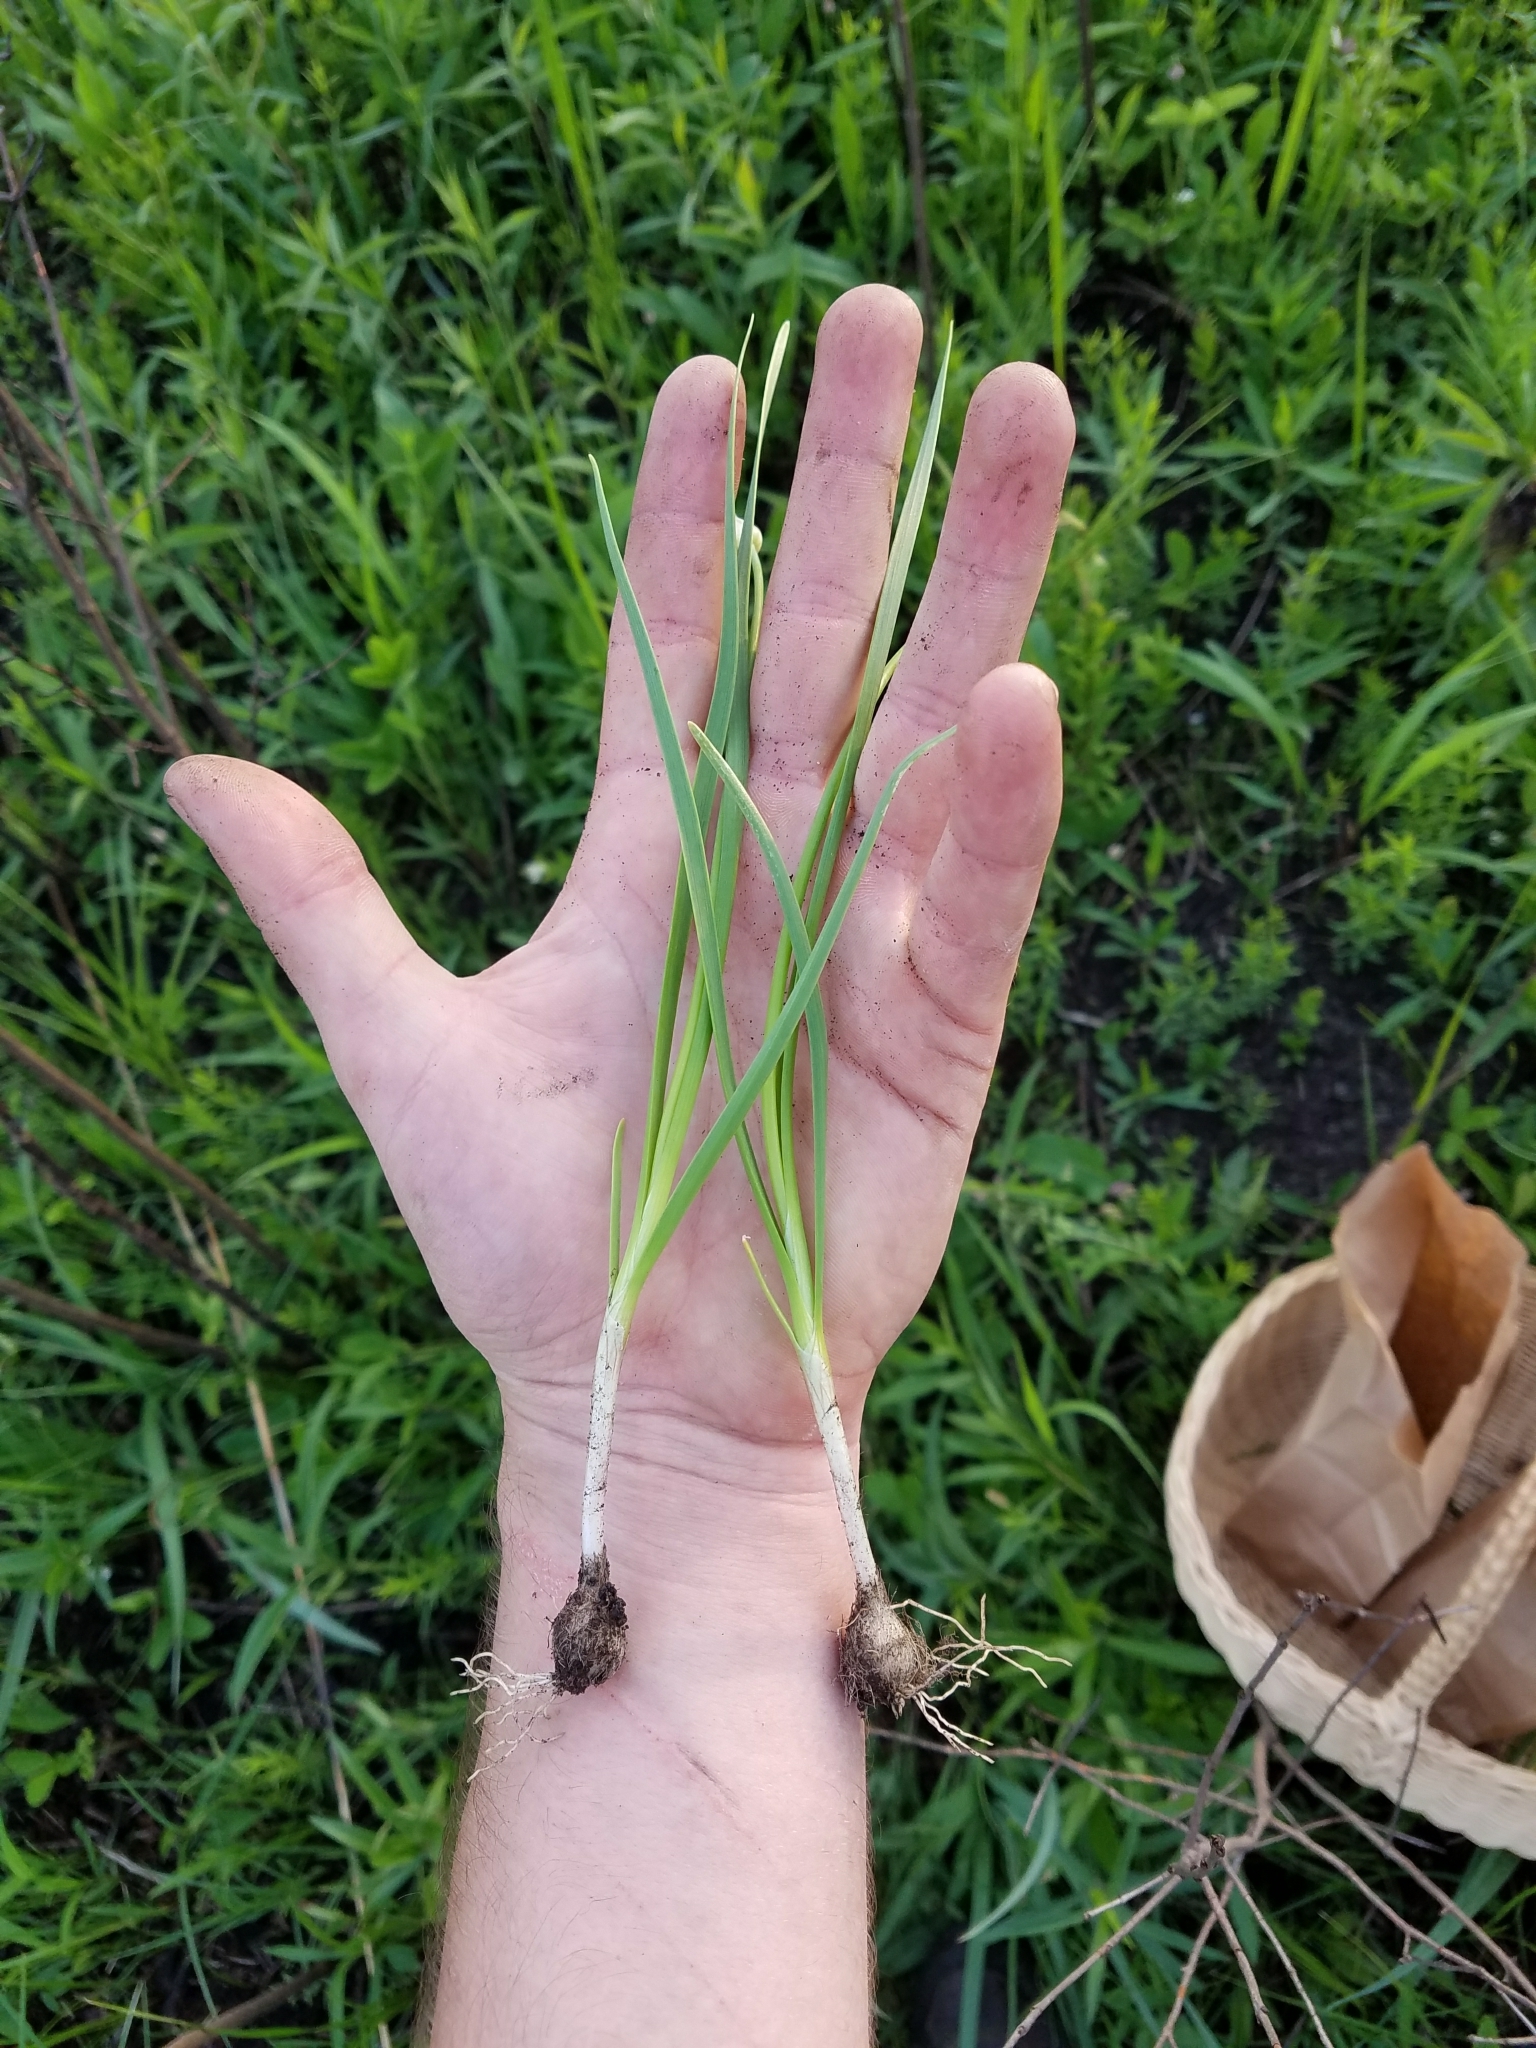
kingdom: Plantae
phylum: Tracheophyta
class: Liliopsida
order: Asparagales
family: Amaryllidaceae
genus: Allium
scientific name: Allium canadense
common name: Meadow garlic
